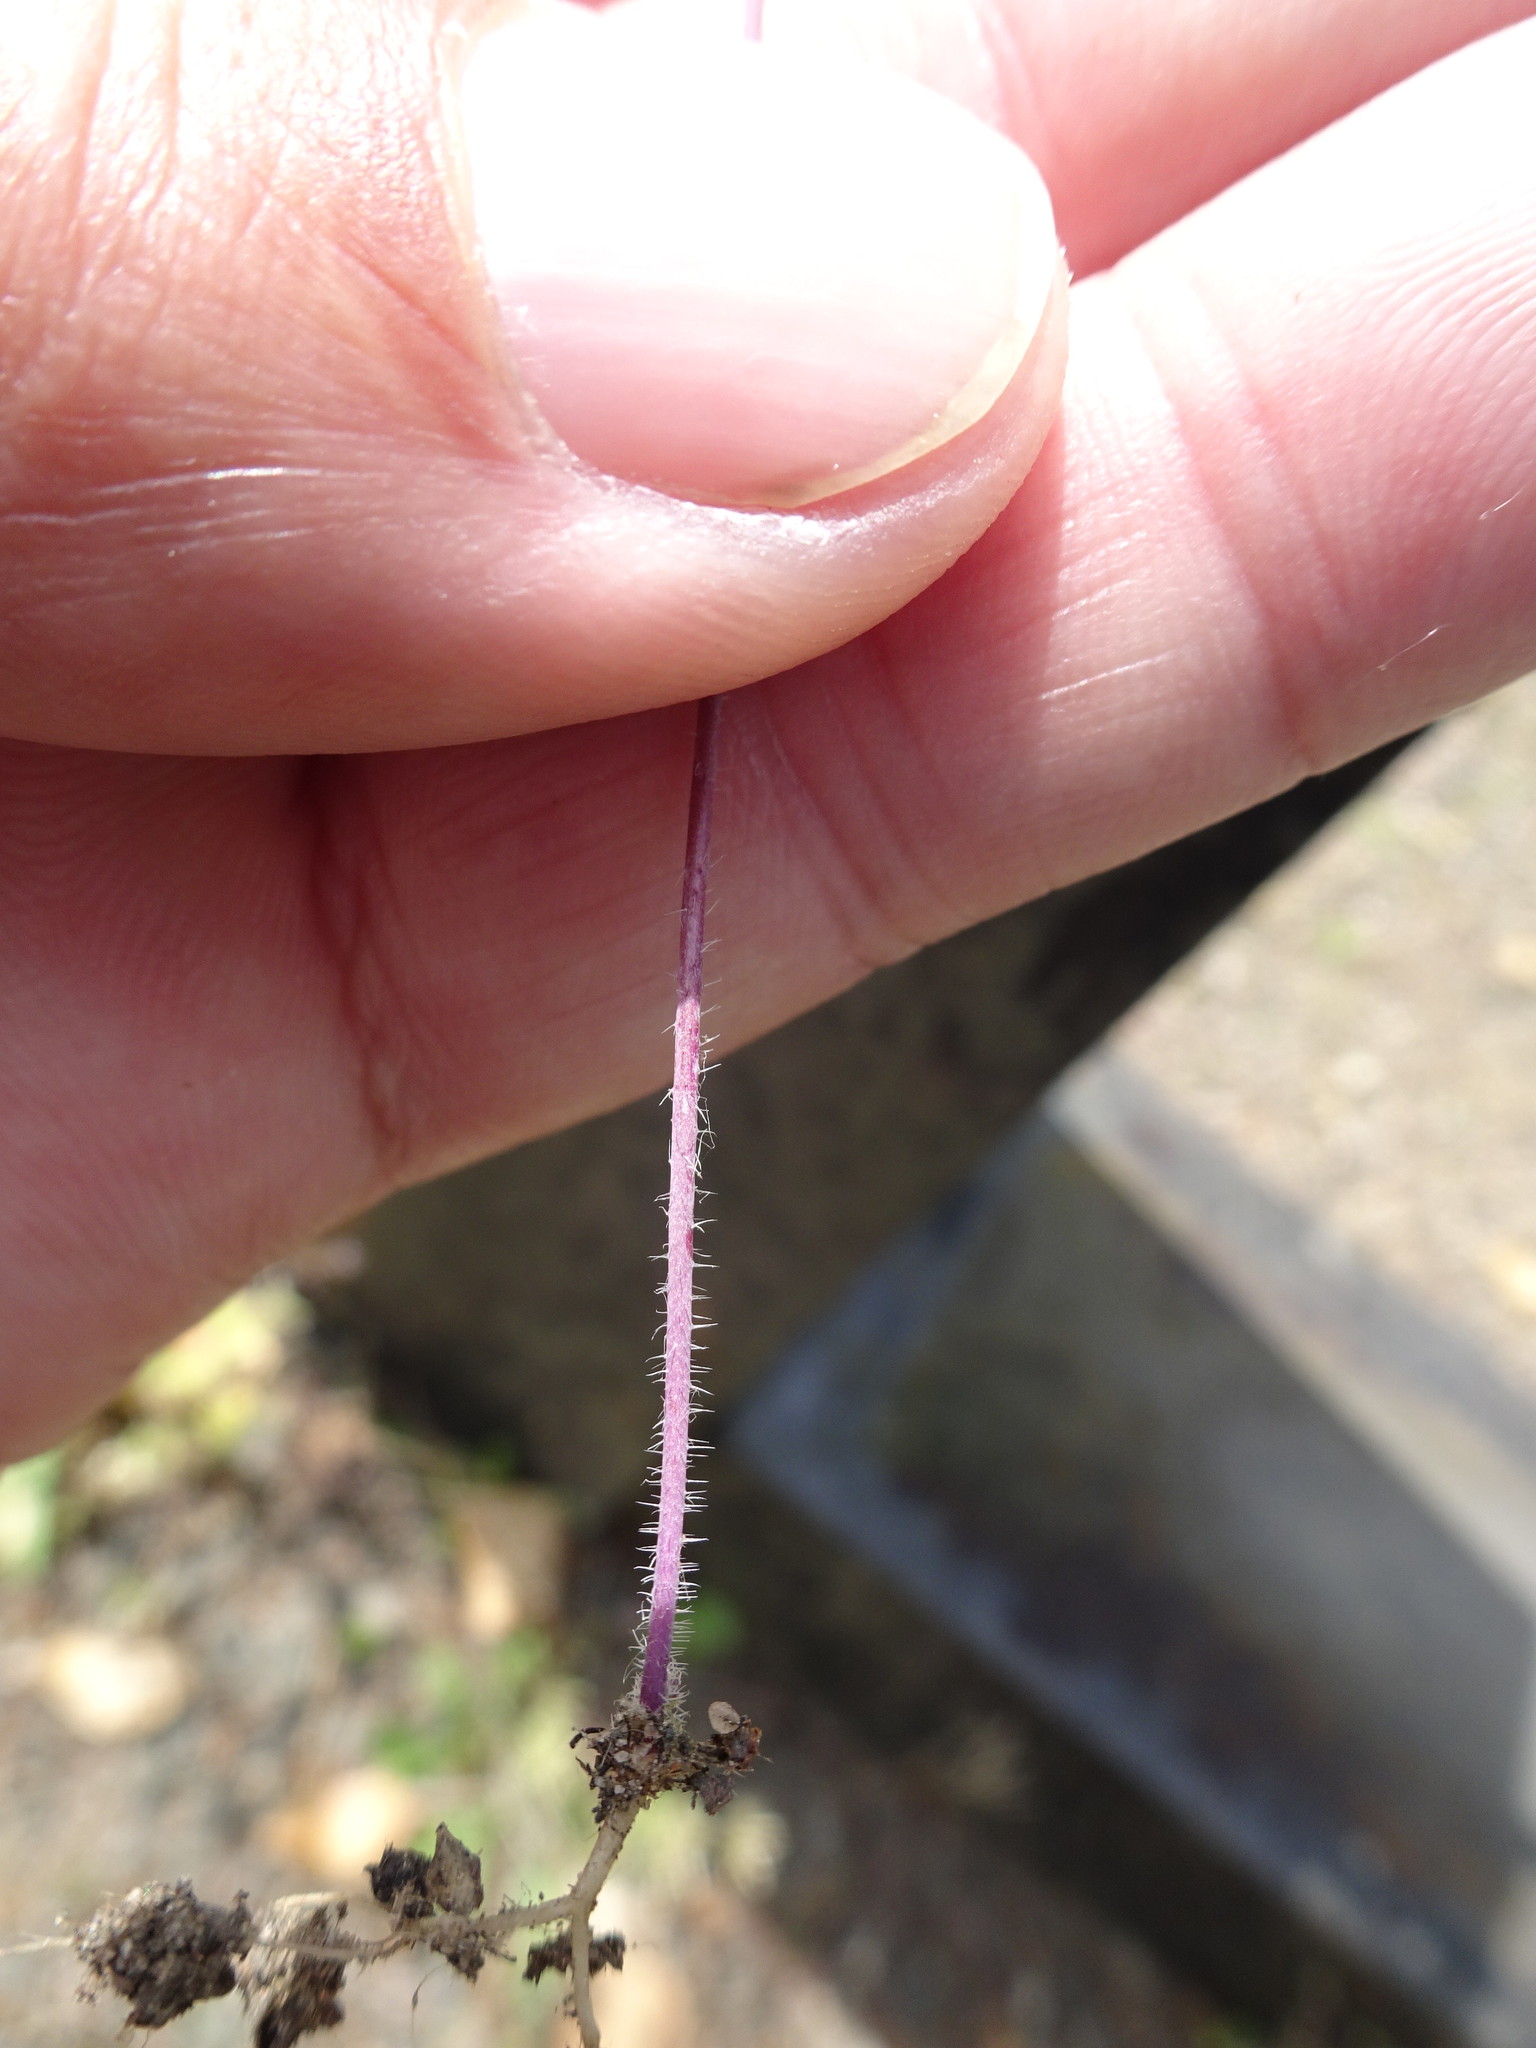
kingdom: Plantae
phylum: Tracheophyta
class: Magnoliopsida
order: Brassicales
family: Brassicaceae
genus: Arabidopsis
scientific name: Arabidopsis thaliana
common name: Thale cress
